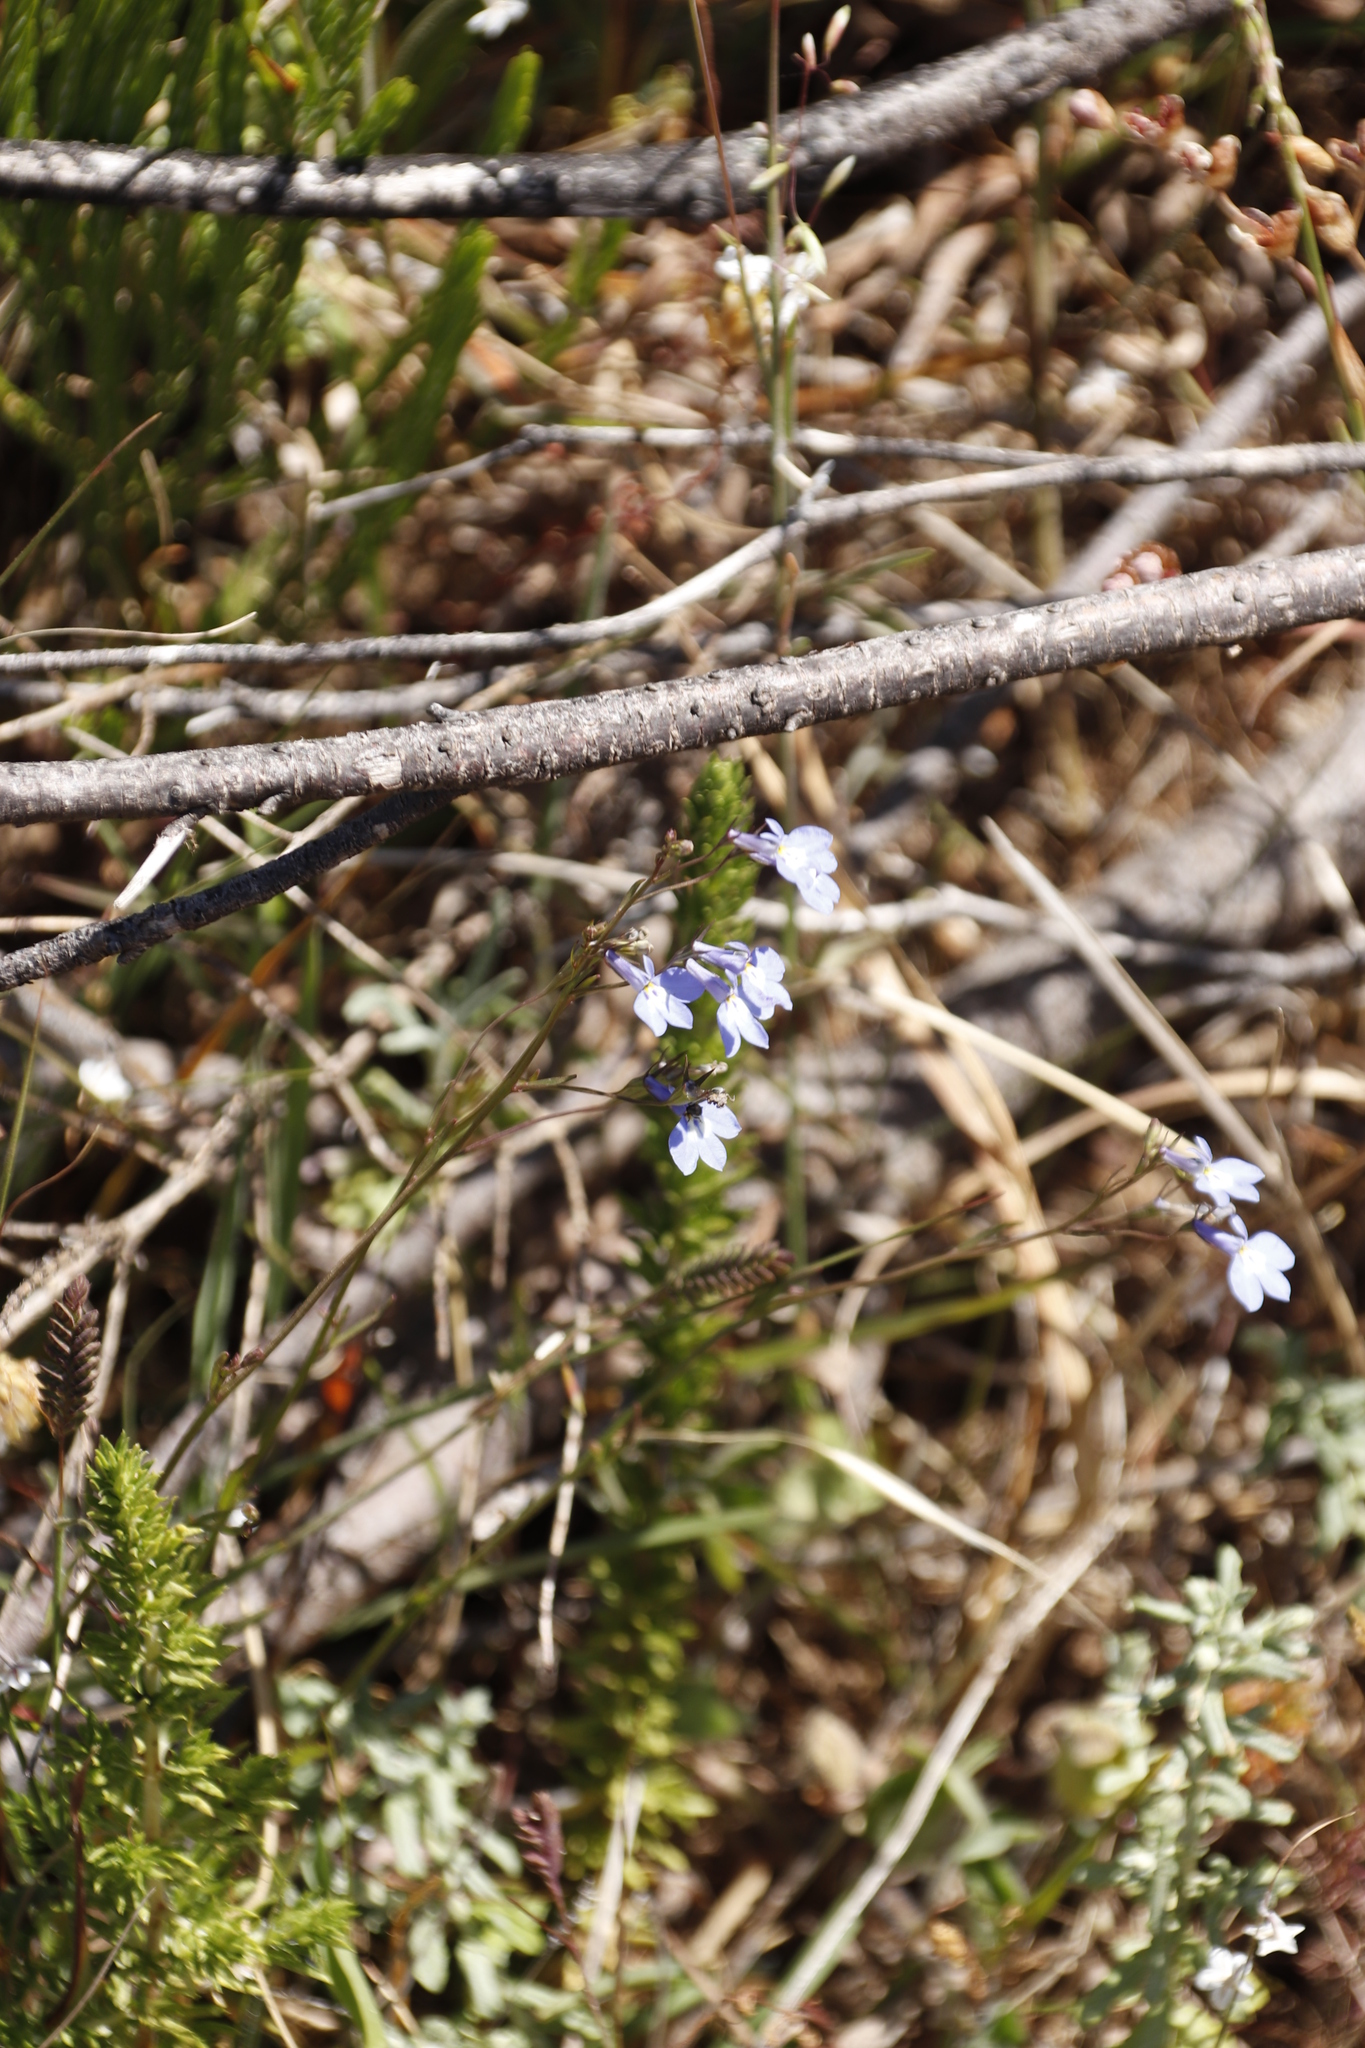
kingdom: Plantae
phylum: Tracheophyta
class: Magnoliopsida
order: Asterales
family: Campanulaceae
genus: Lobelia
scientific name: Lobelia erinus
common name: Edging lobelia
